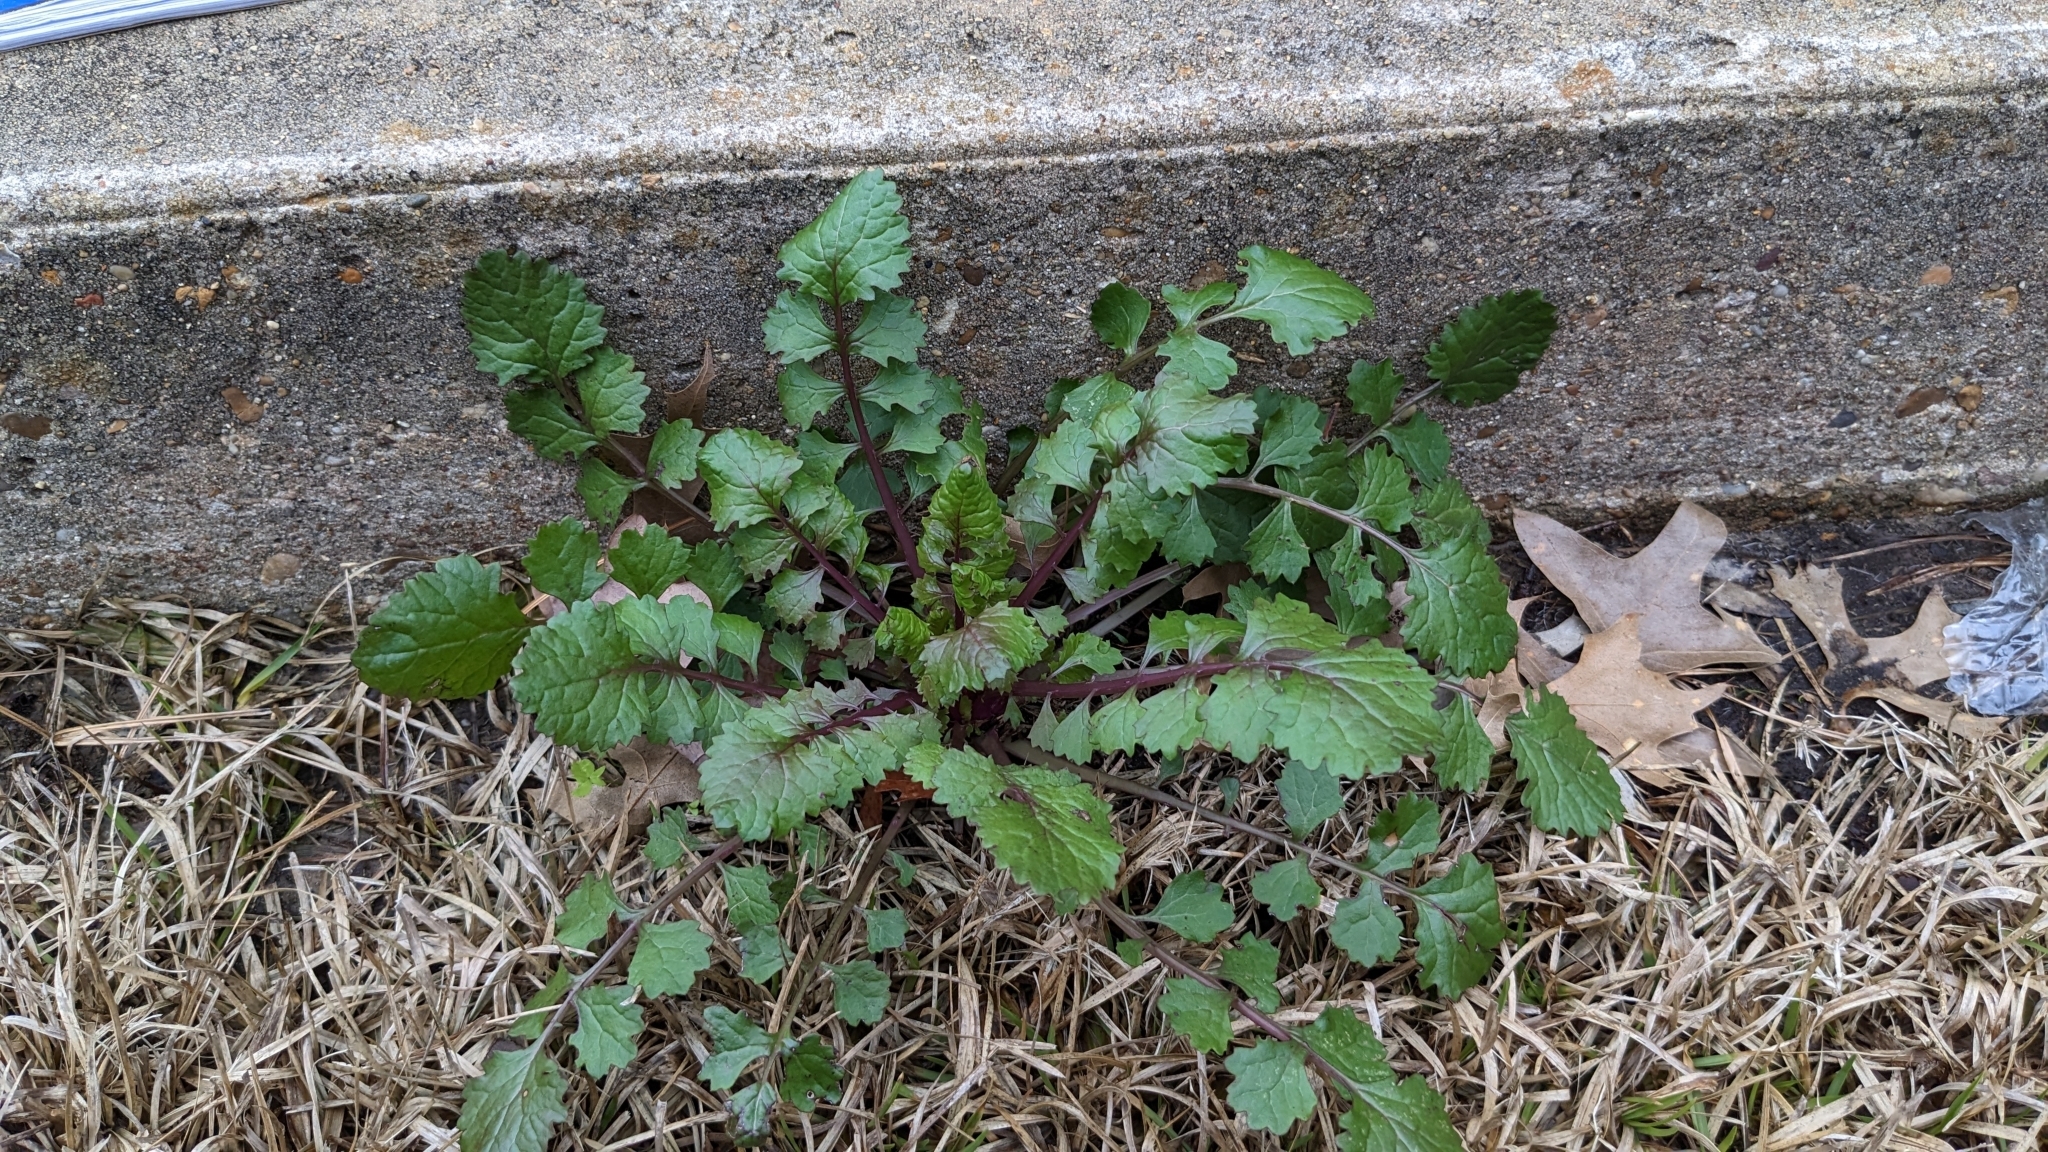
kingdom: Plantae
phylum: Tracheophyta
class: Magnoliopsida
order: Asterales
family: Asteraceae
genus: Packera
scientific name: Packera glabella
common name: Butterweed
